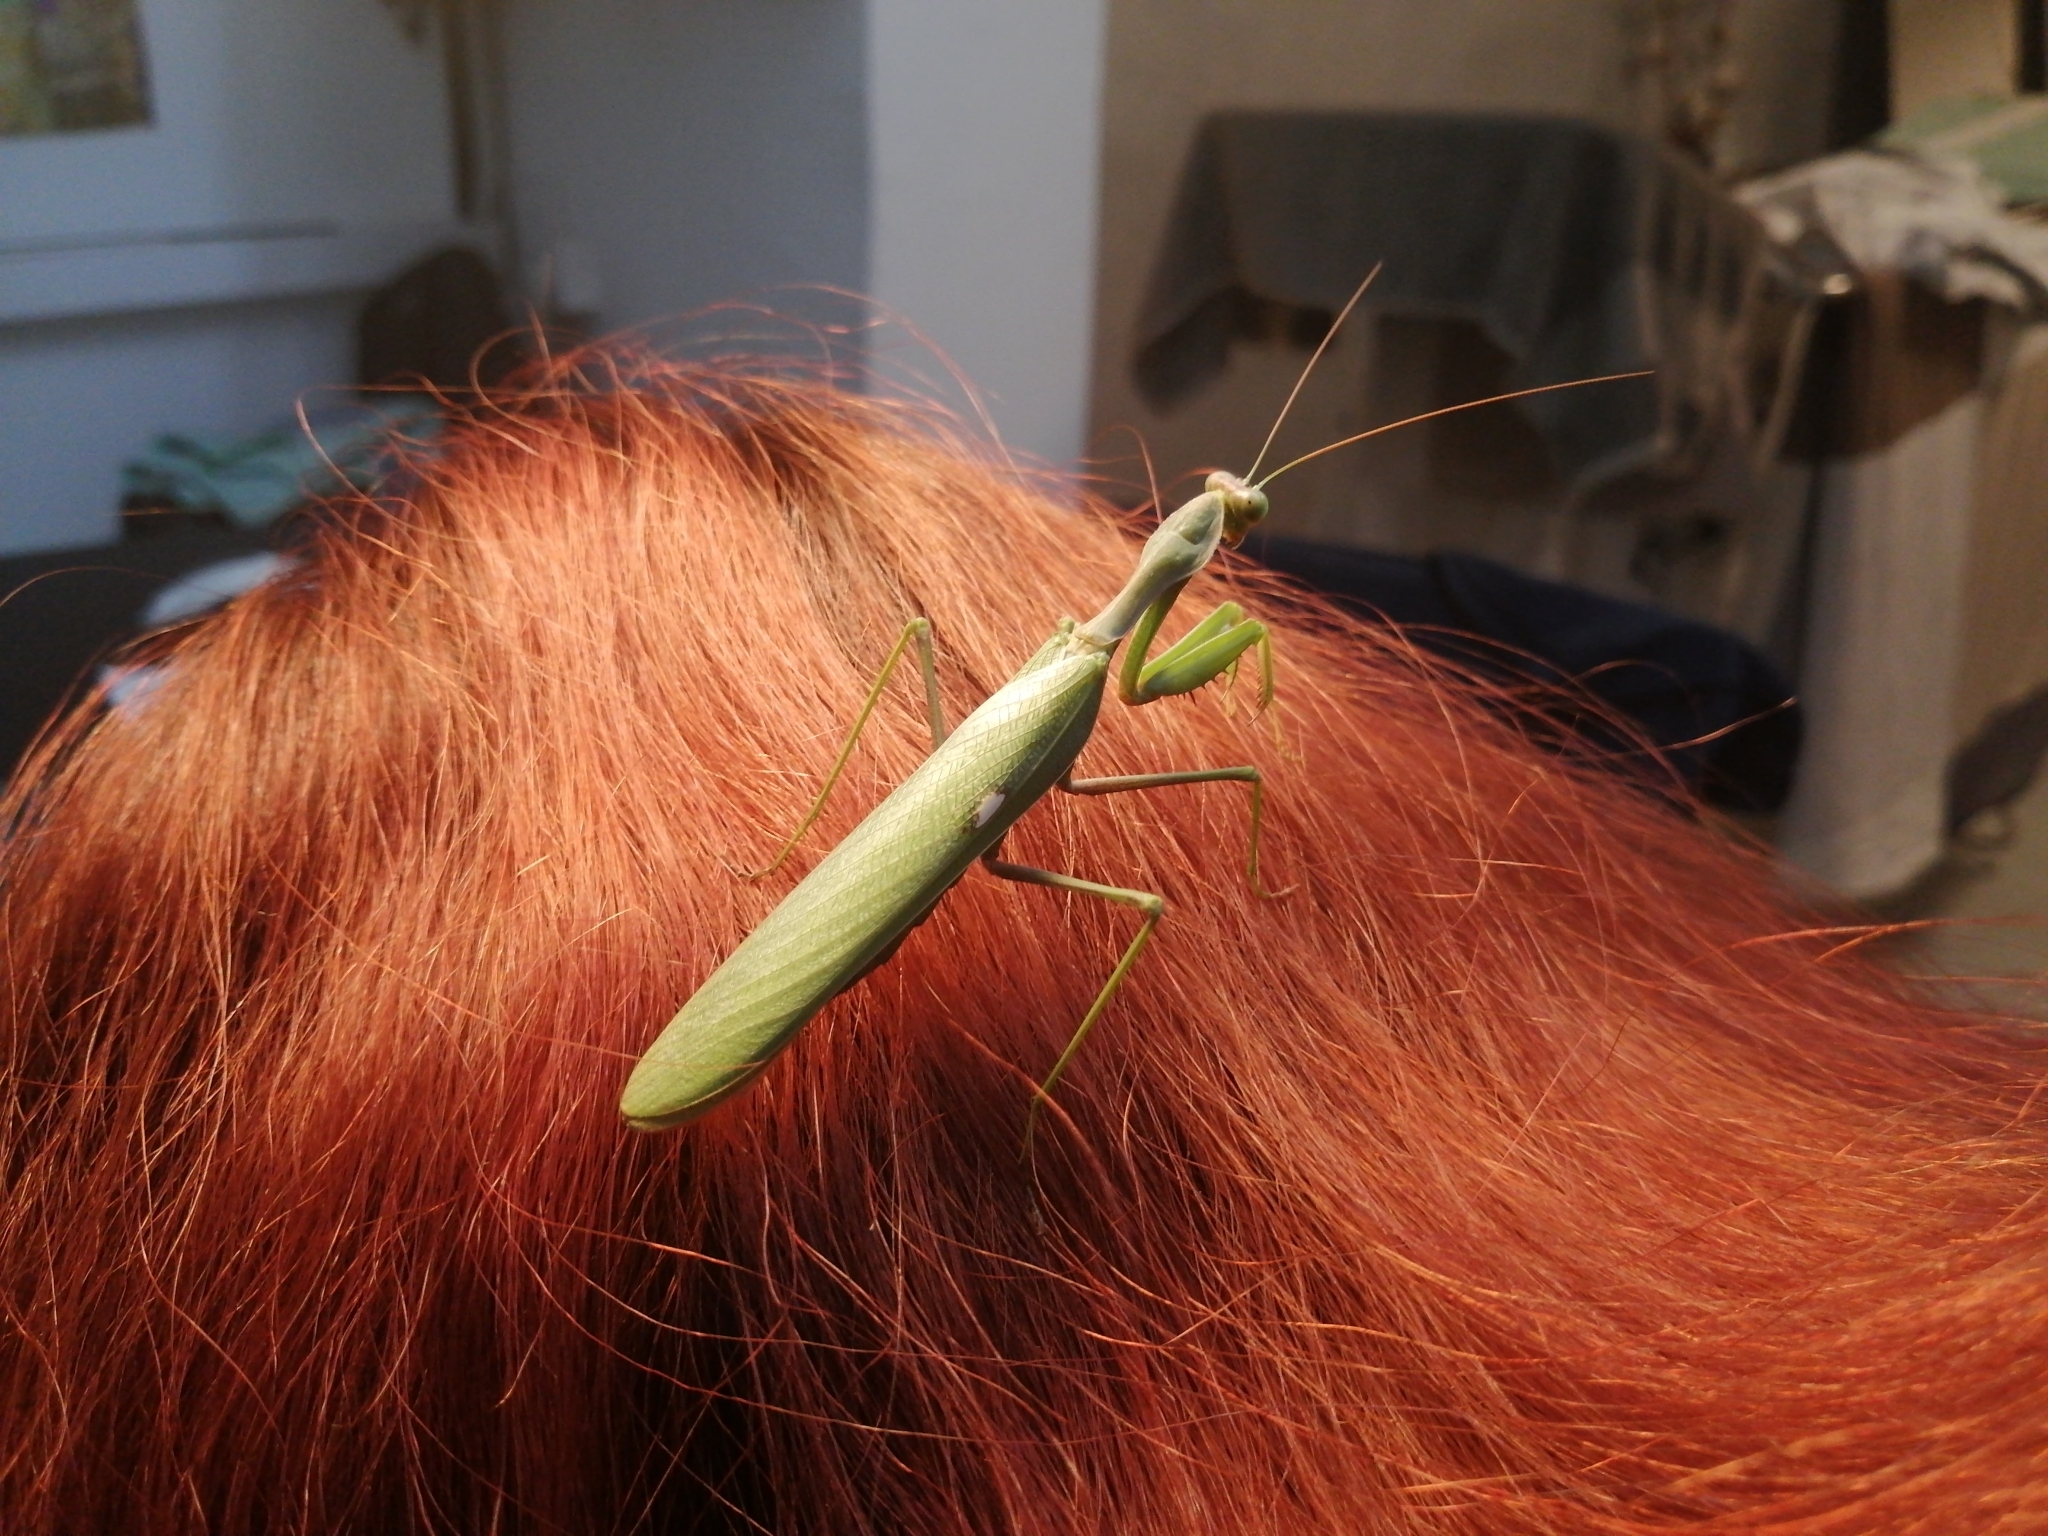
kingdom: Animalia
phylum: Arthropoda
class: Insecta
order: Mantodea
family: Mantidae
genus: Sphodromantis
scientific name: Sphodromantis viridis
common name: Giant african mantis
